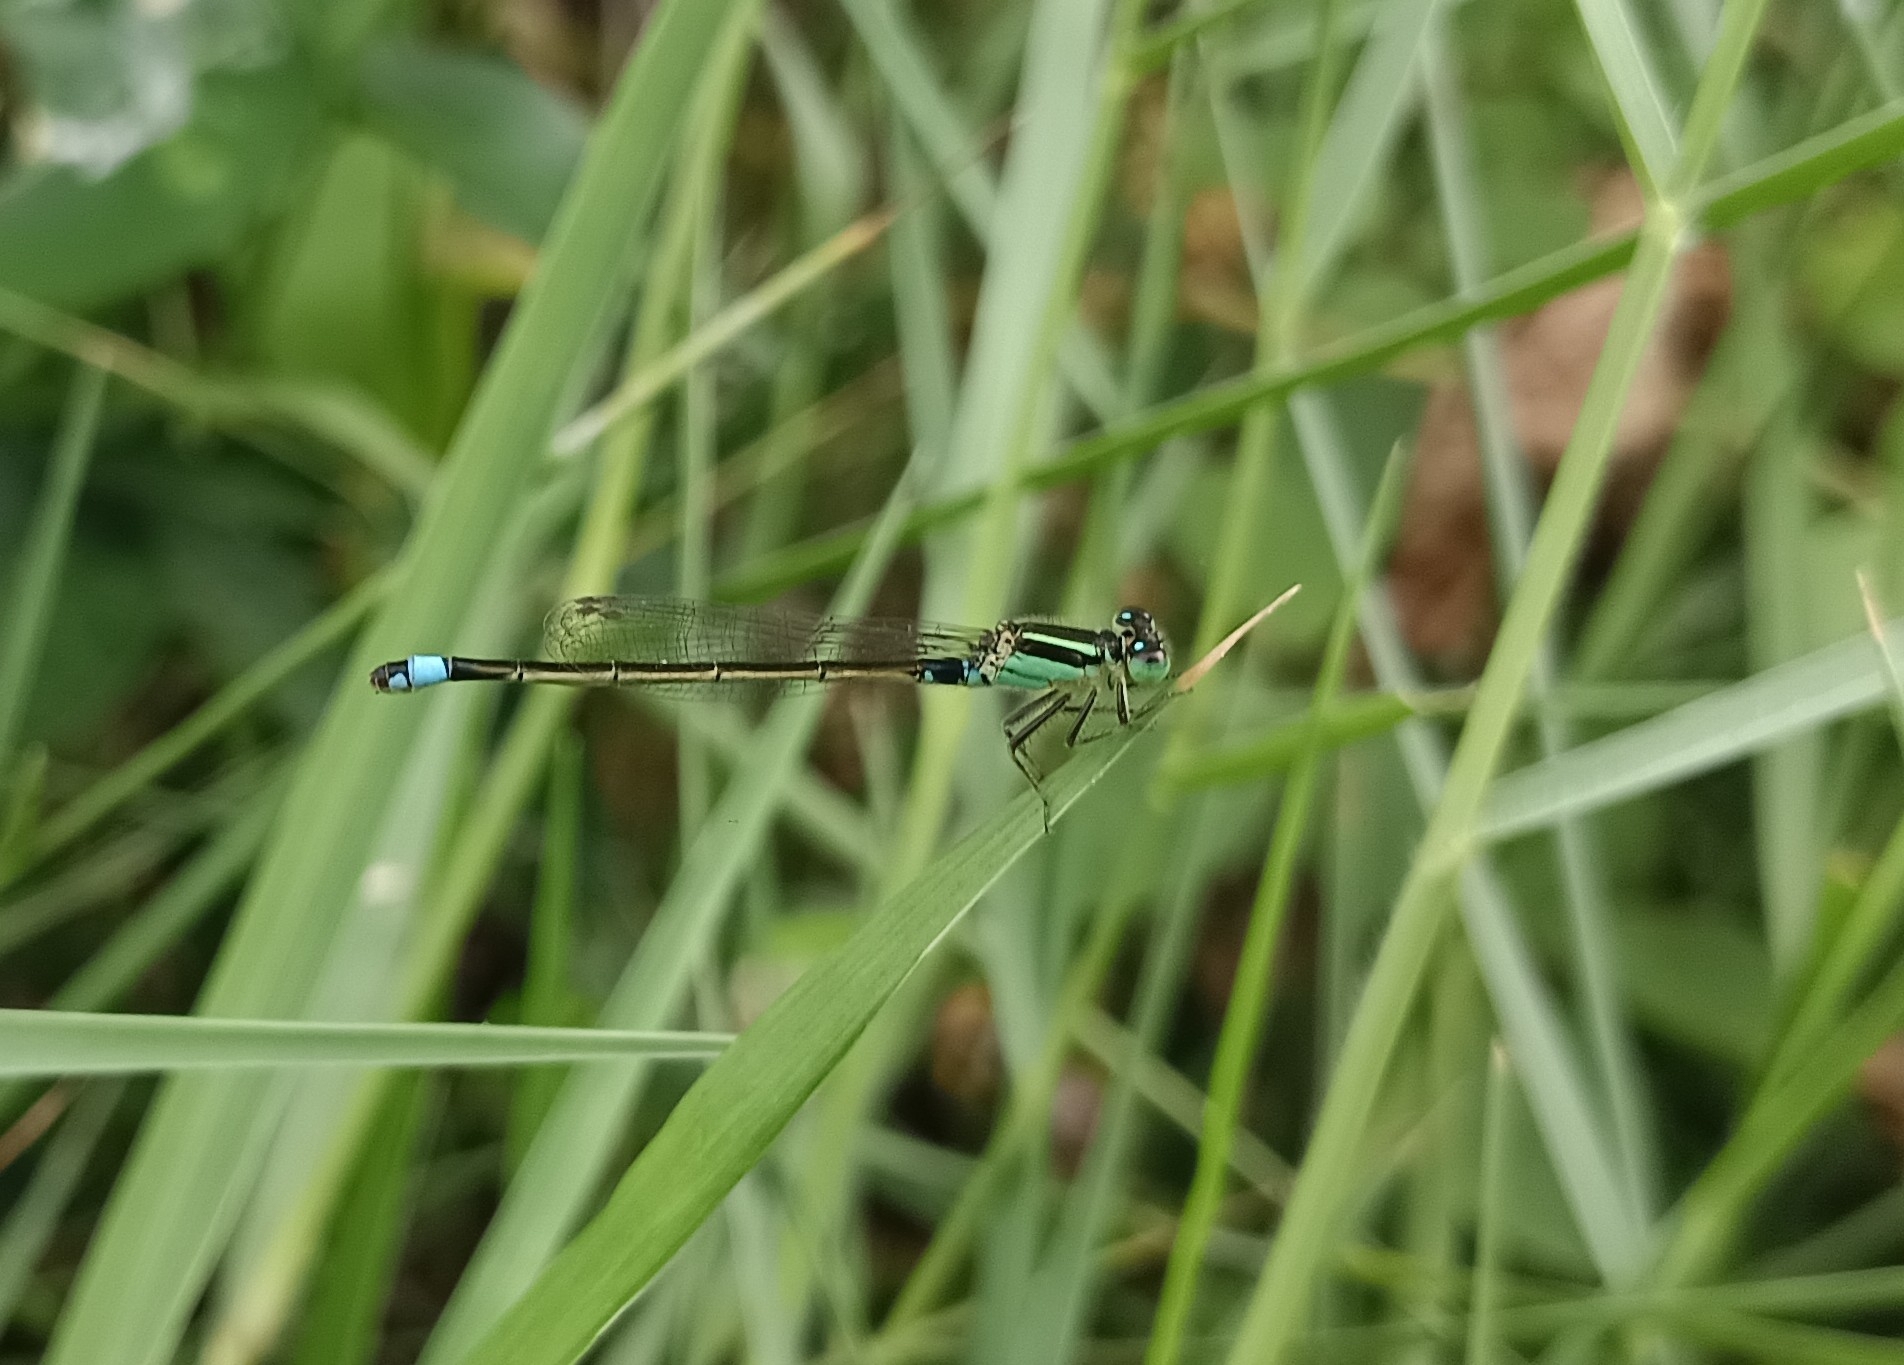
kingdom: Animalia
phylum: Arthropoda
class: Insecta
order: Odonata
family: Coenagrionidae
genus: Ischnura
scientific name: Ischnura senegalensis
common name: Tropical bluetail
